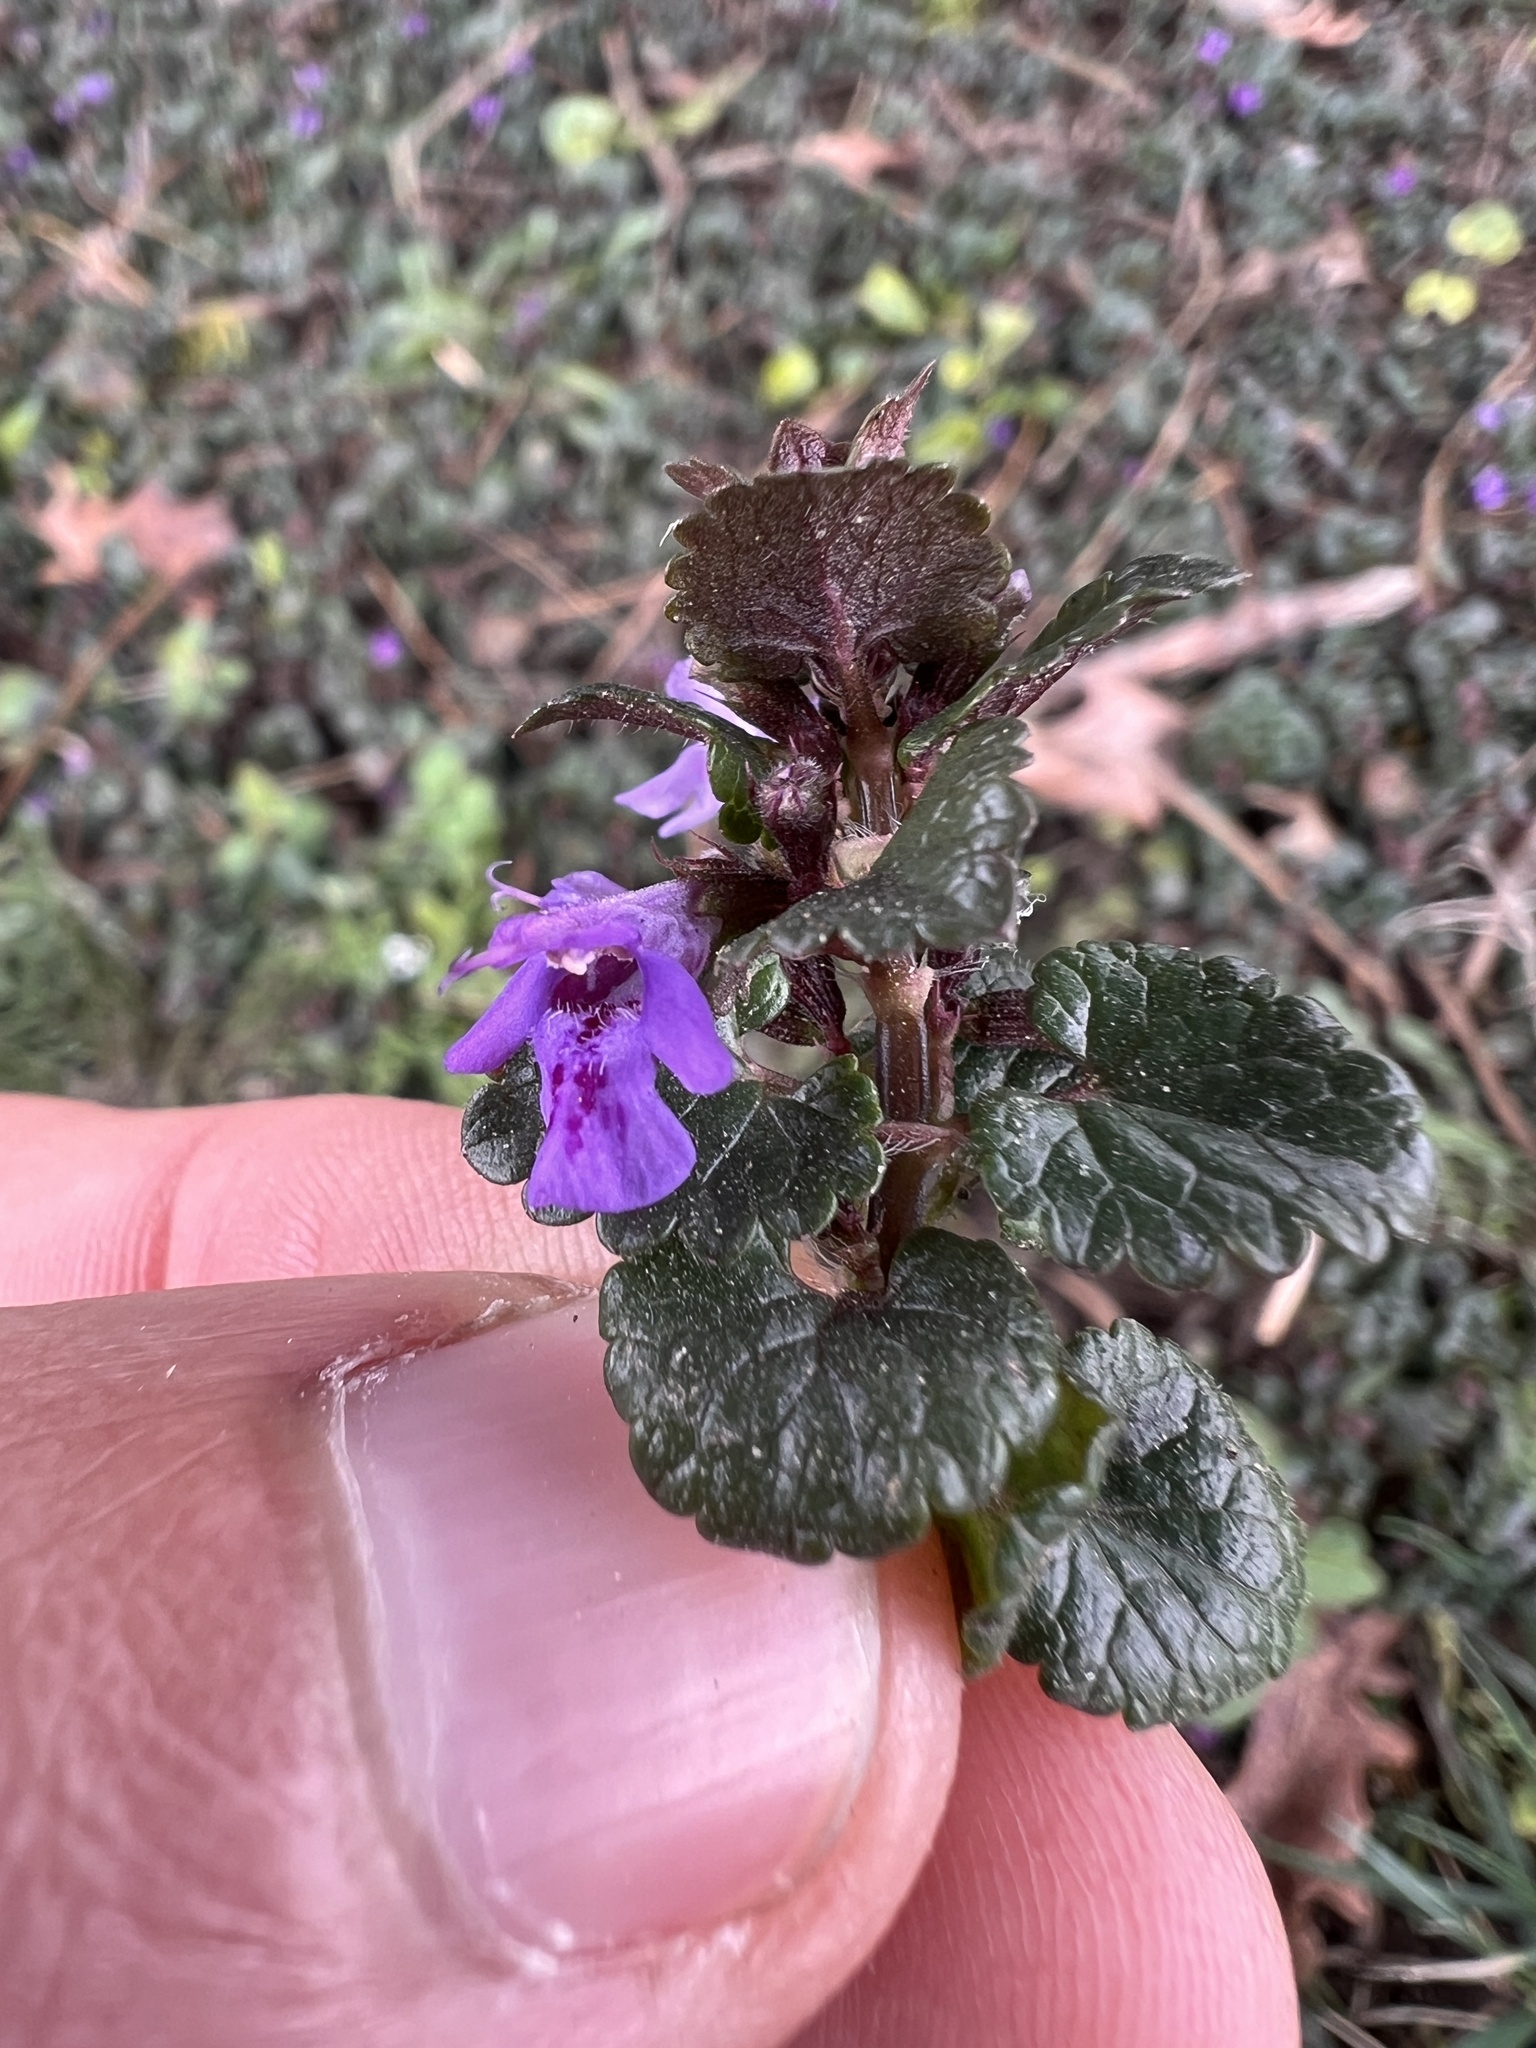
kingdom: Plantae
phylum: Tracheophyta
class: Magnoliopsida
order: Lamiales
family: Lamiaceae
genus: Glechoma
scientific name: Glechoma hederacea
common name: Ground ivy
